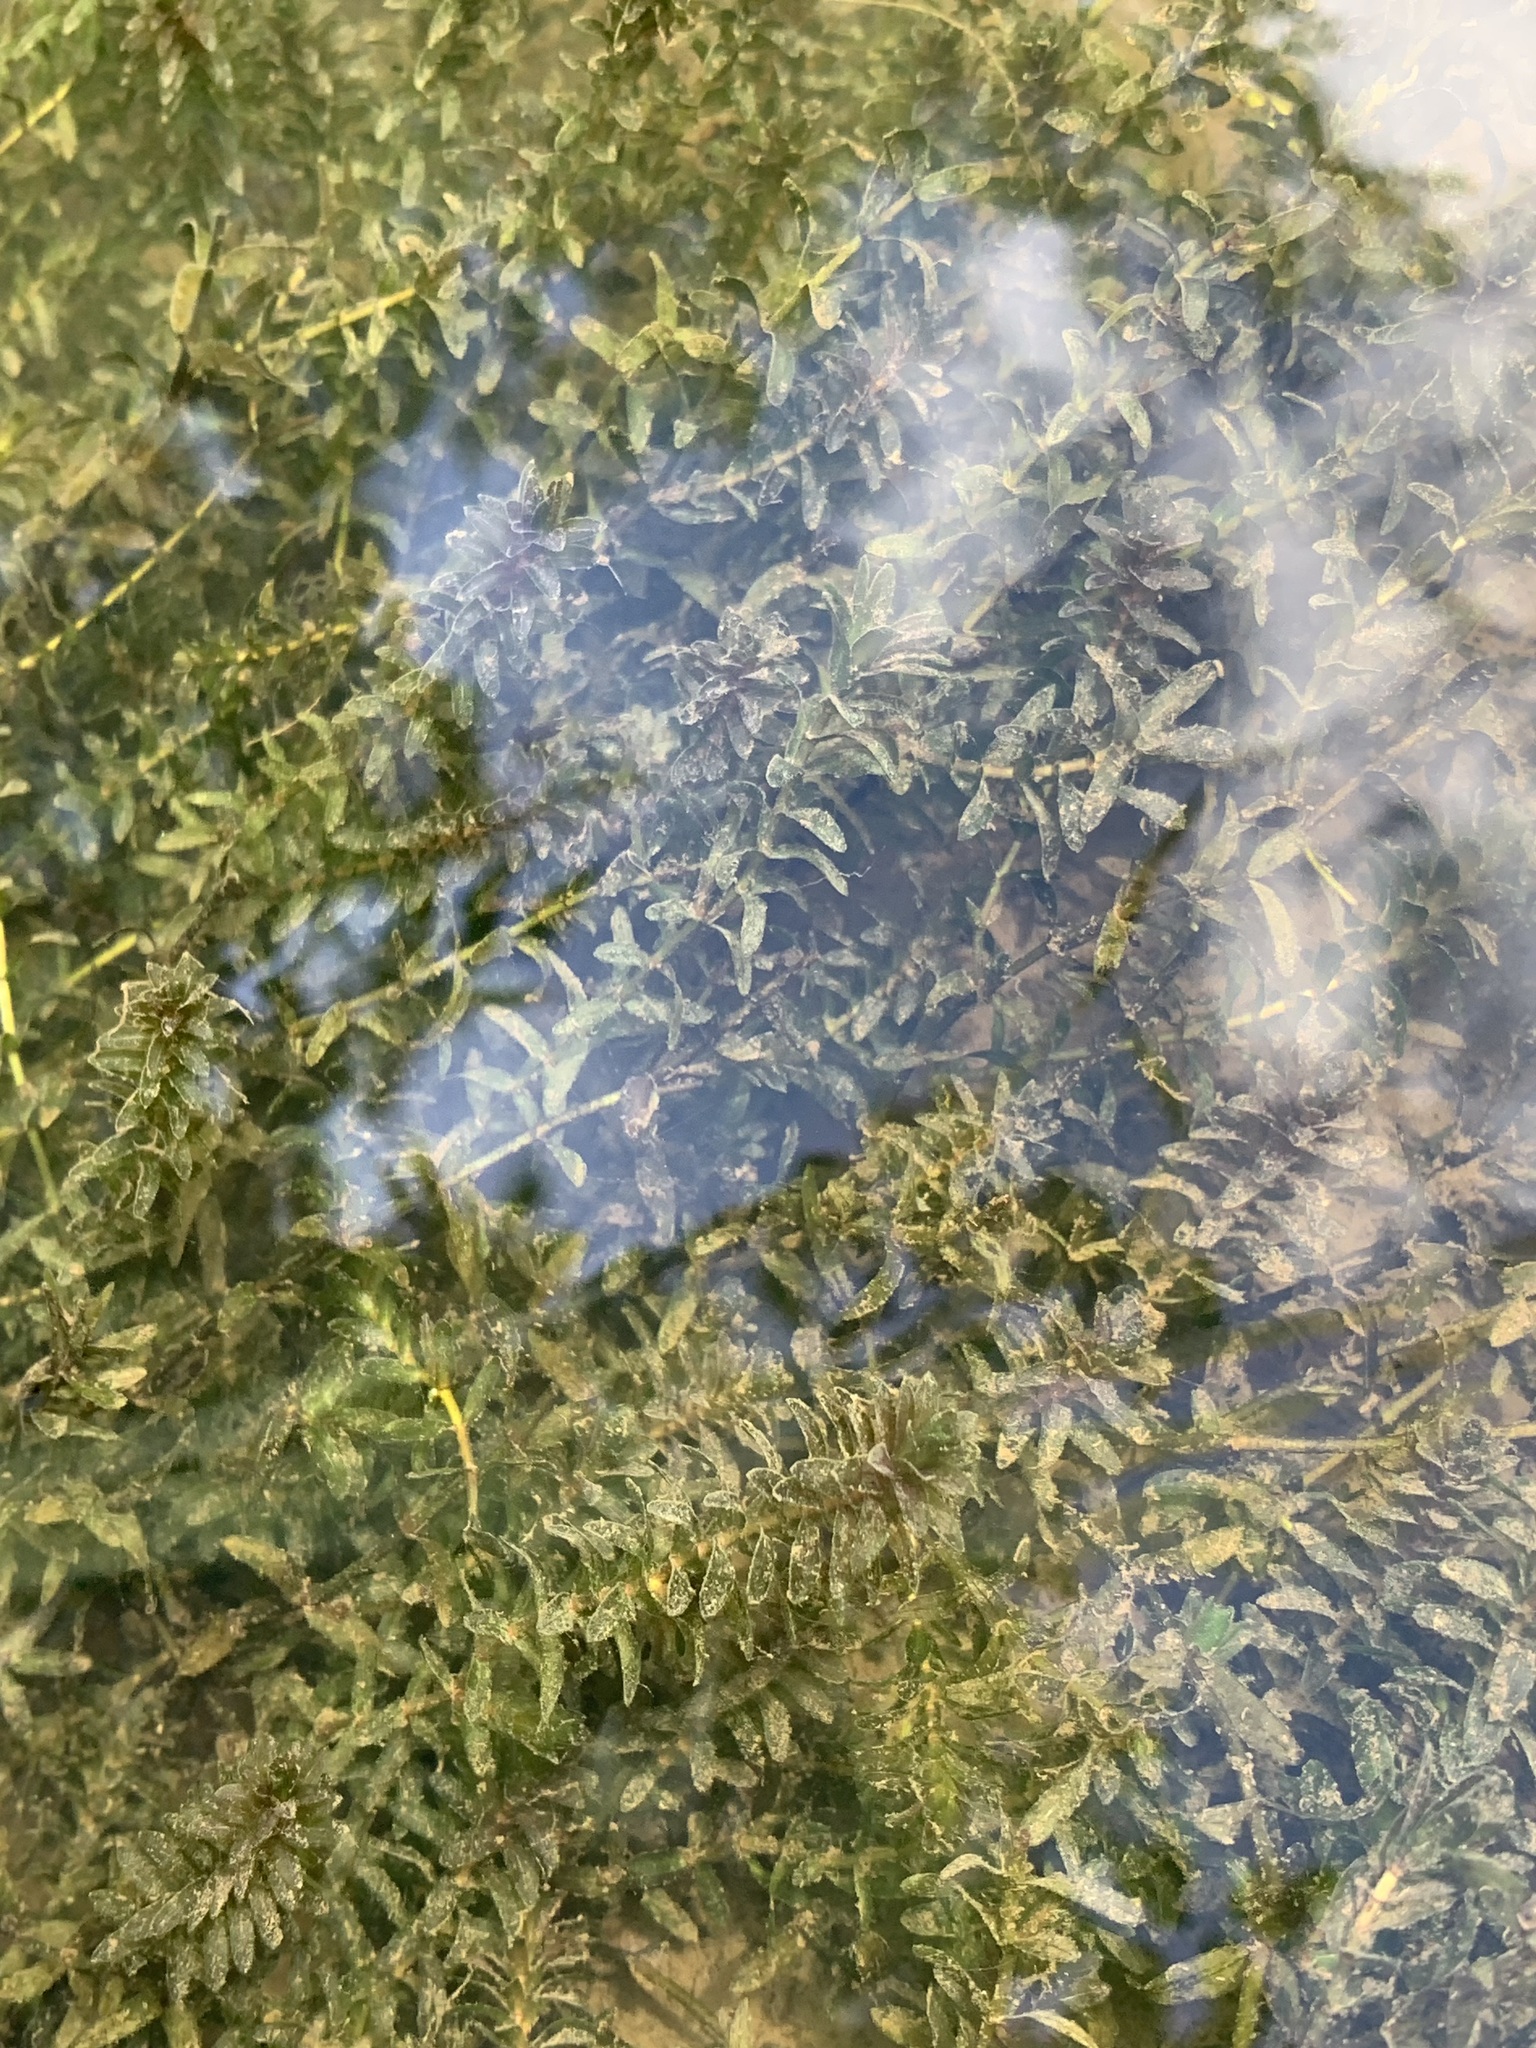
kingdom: Plantae
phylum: Tracheophyta
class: Liliopsida
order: Alismatales
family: Hydrocharitaceae
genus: Elodea
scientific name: Elodea canadensis
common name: Canadian waterweed
